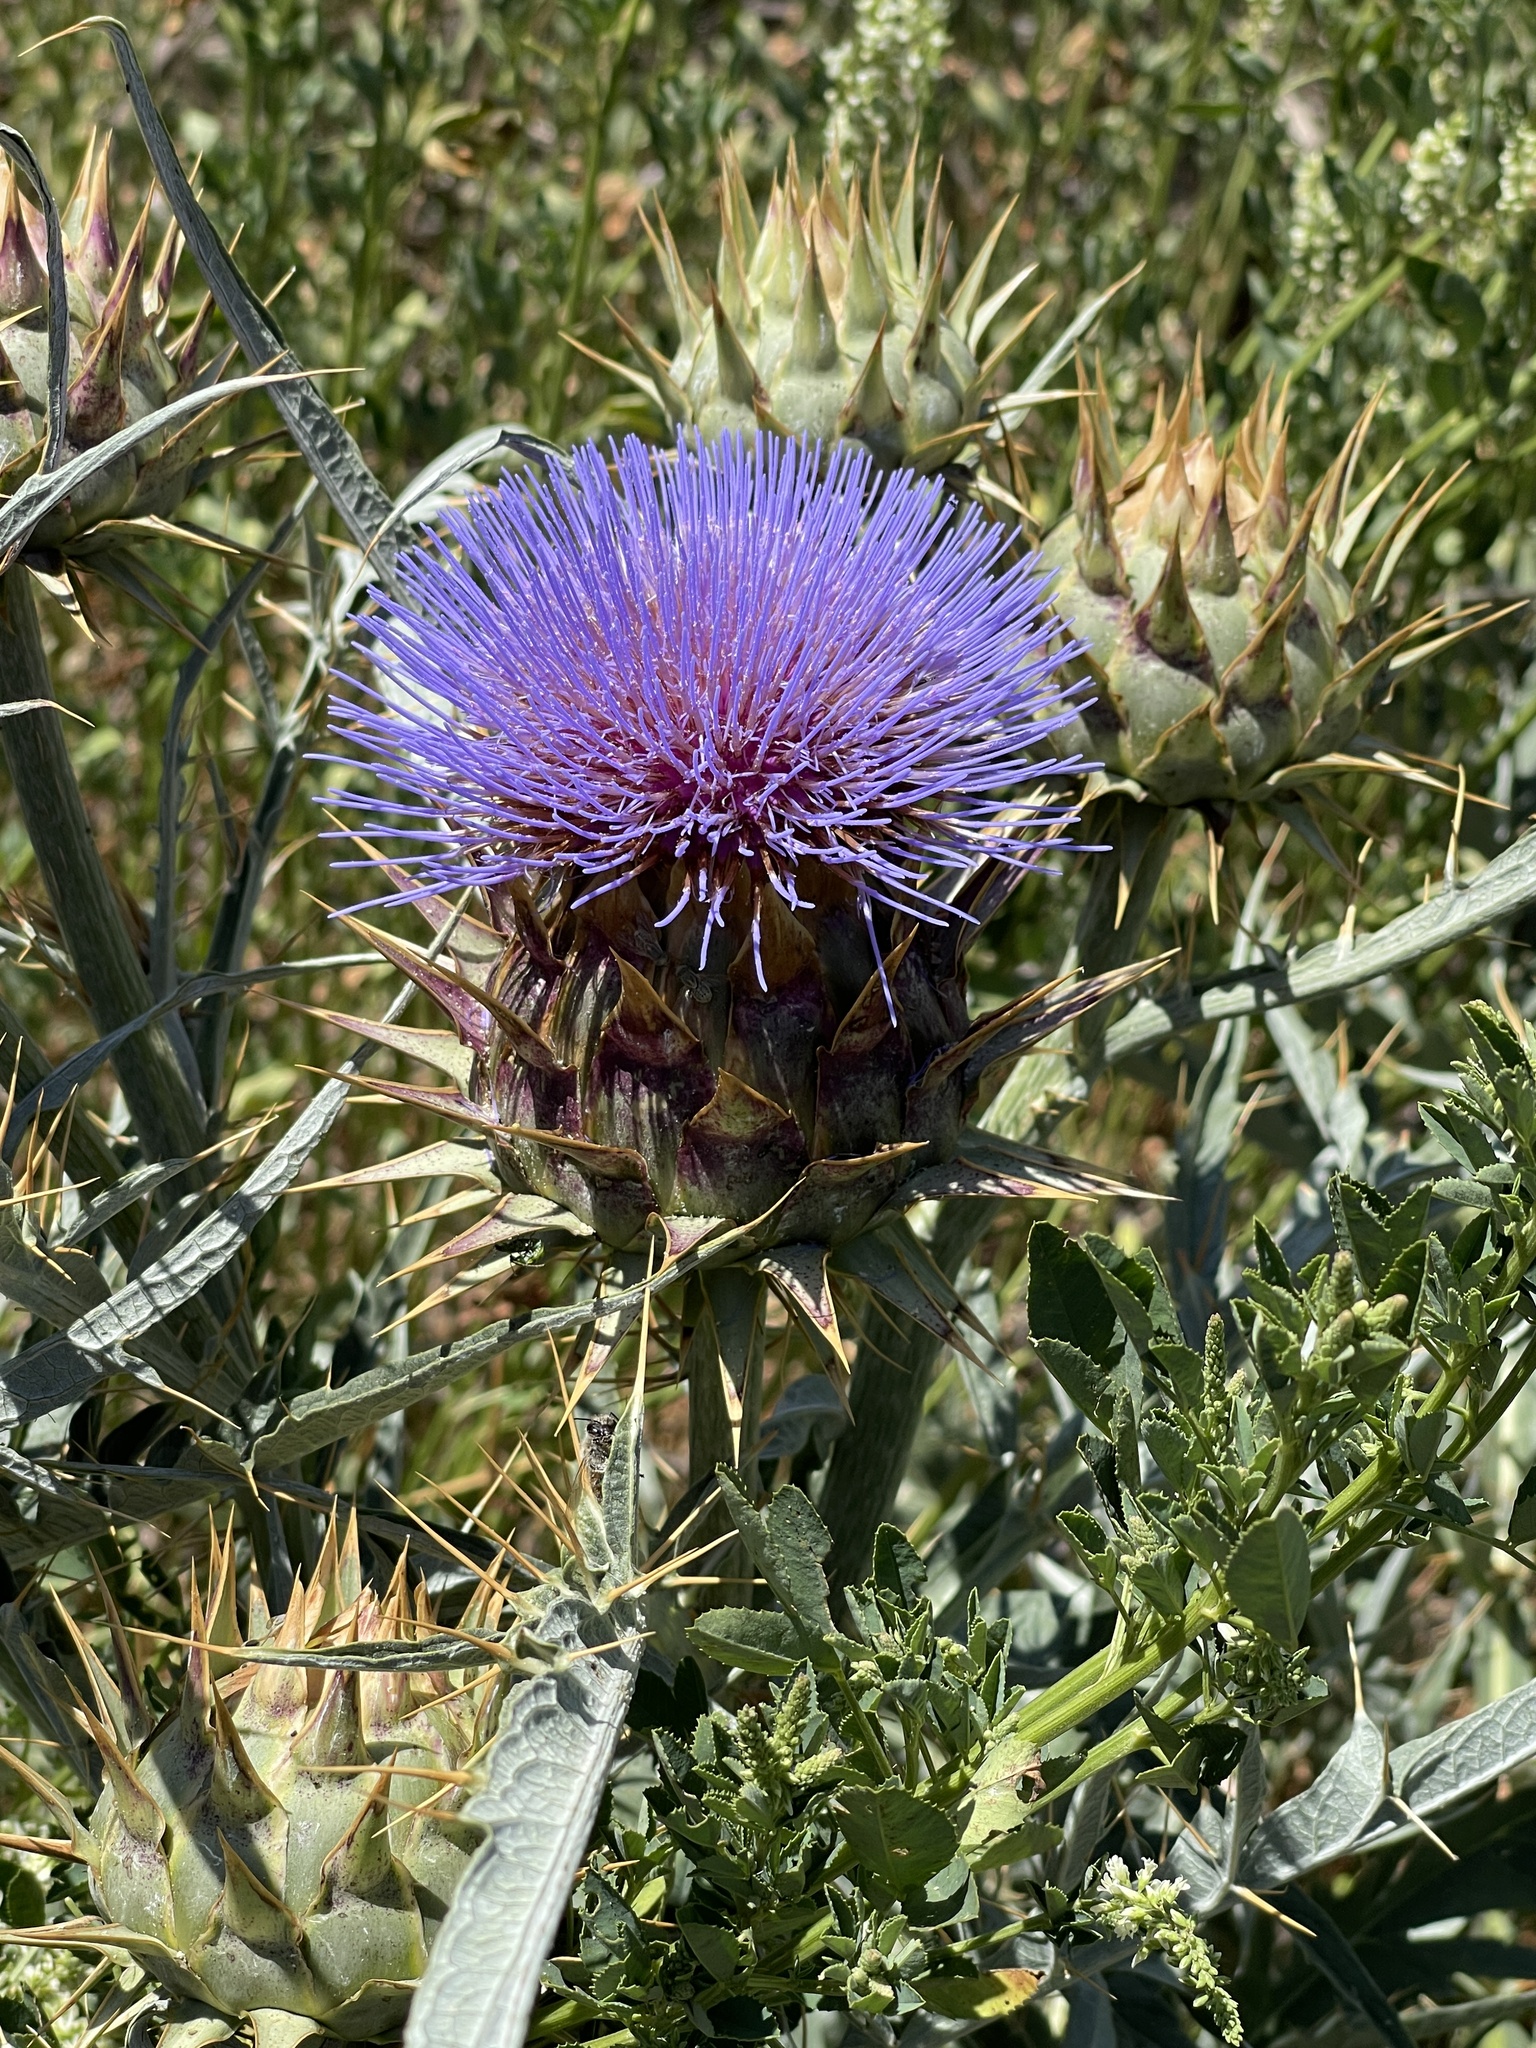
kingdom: Plantae
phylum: Tracheophyta
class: Magnoliopsida
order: Asterales
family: Asteraceae
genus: Cynara
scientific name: Cynara cardunculus
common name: Globe artichoke
